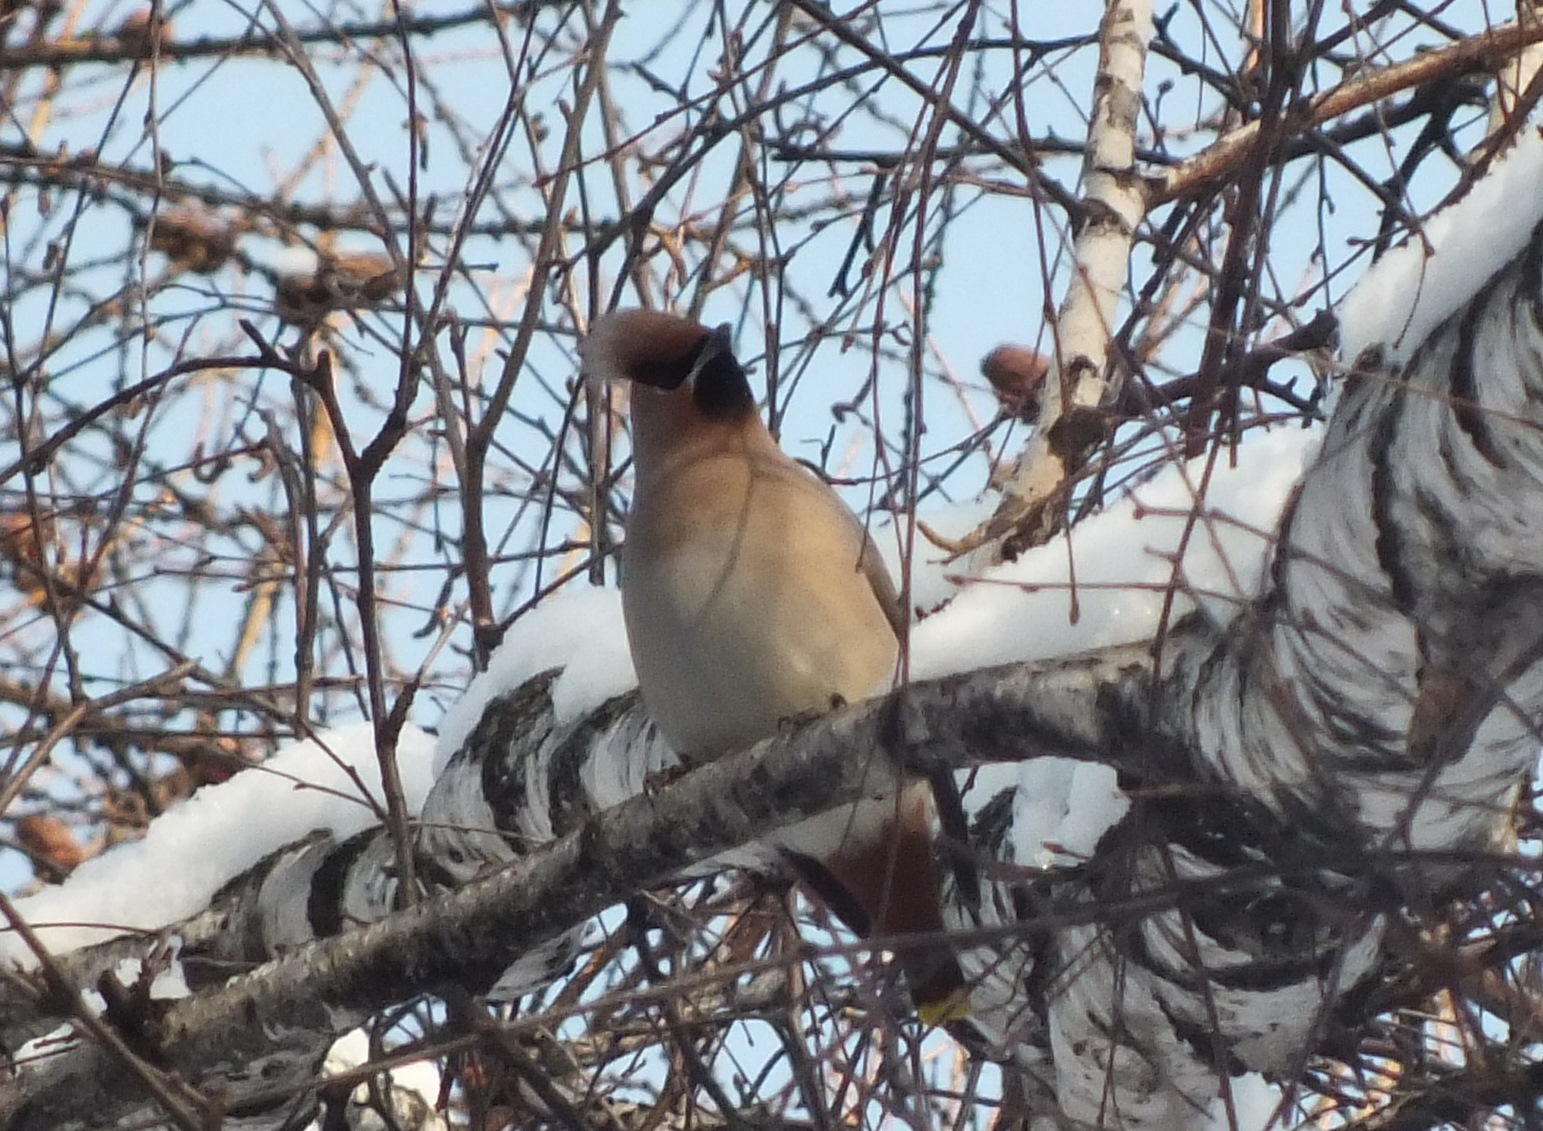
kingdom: Animalia
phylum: Chordata
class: Aves
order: Passeriformes
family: Bombycillidae
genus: Bombycilla
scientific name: Bombycilla garrulus
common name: Bohemian waxwing
